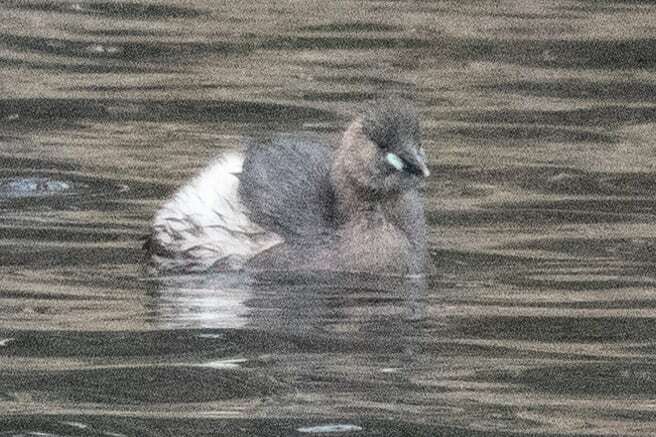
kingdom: Animalia
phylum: Chordata
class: Aves
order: Podicipediformes
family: Podicipedidae
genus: Tachybaptus
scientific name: Tachybaptus ruficollis
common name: Little grebe
